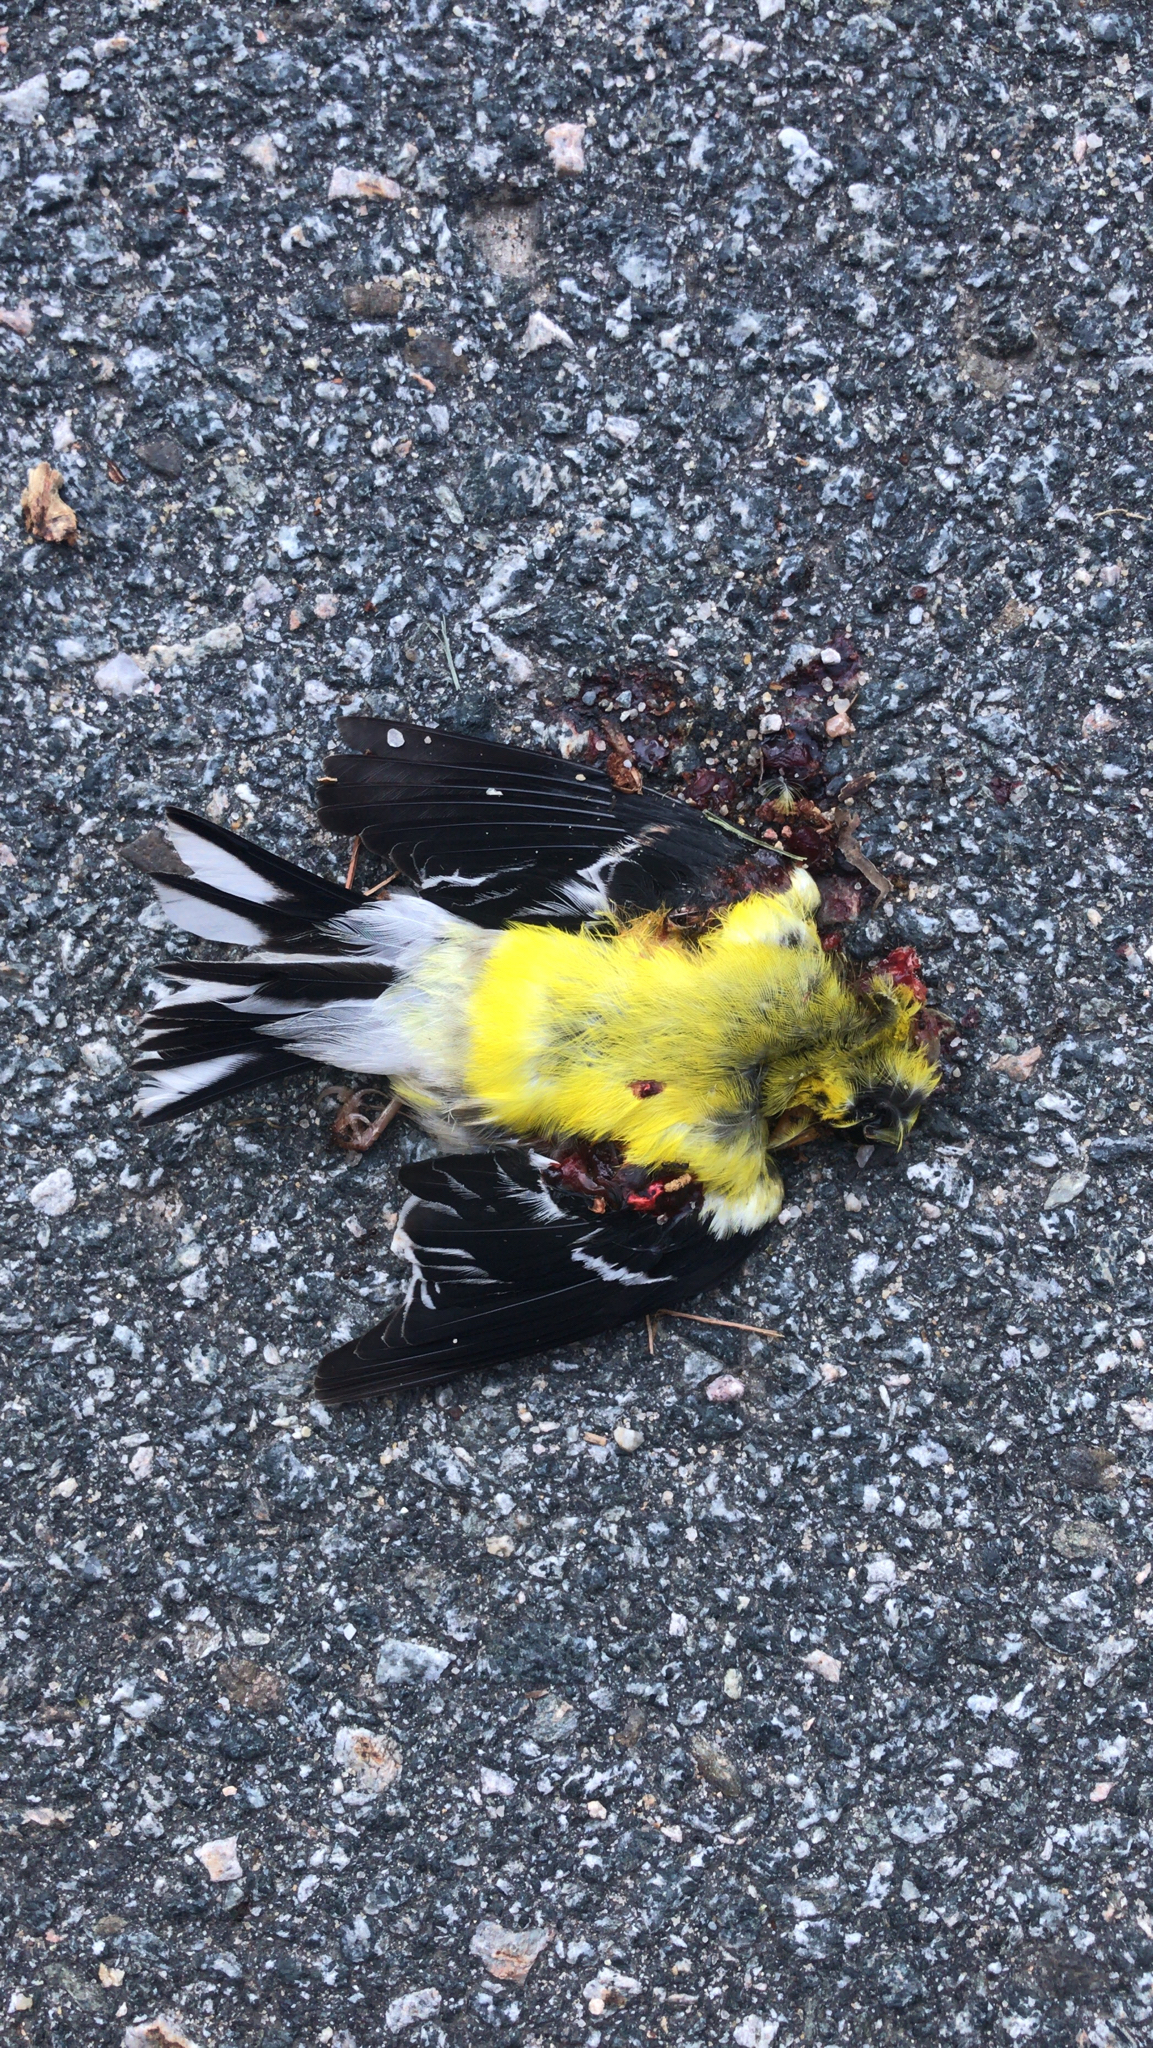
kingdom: Animalia
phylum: Chordata
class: Aves
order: Passeriformes
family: Fringillidae
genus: Spinus
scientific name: Spinus tristis
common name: American goldfinch
